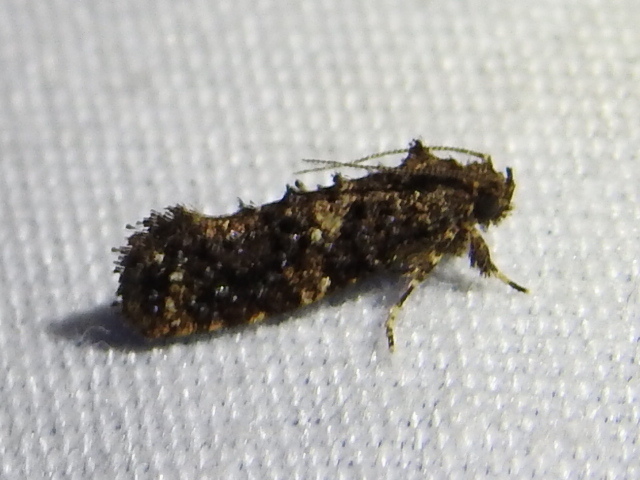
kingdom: Animalia
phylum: Arthropoda
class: Insecta
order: Lepidoptera
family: Tineidae
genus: Acrolophus
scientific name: Acrolophus cressoni
